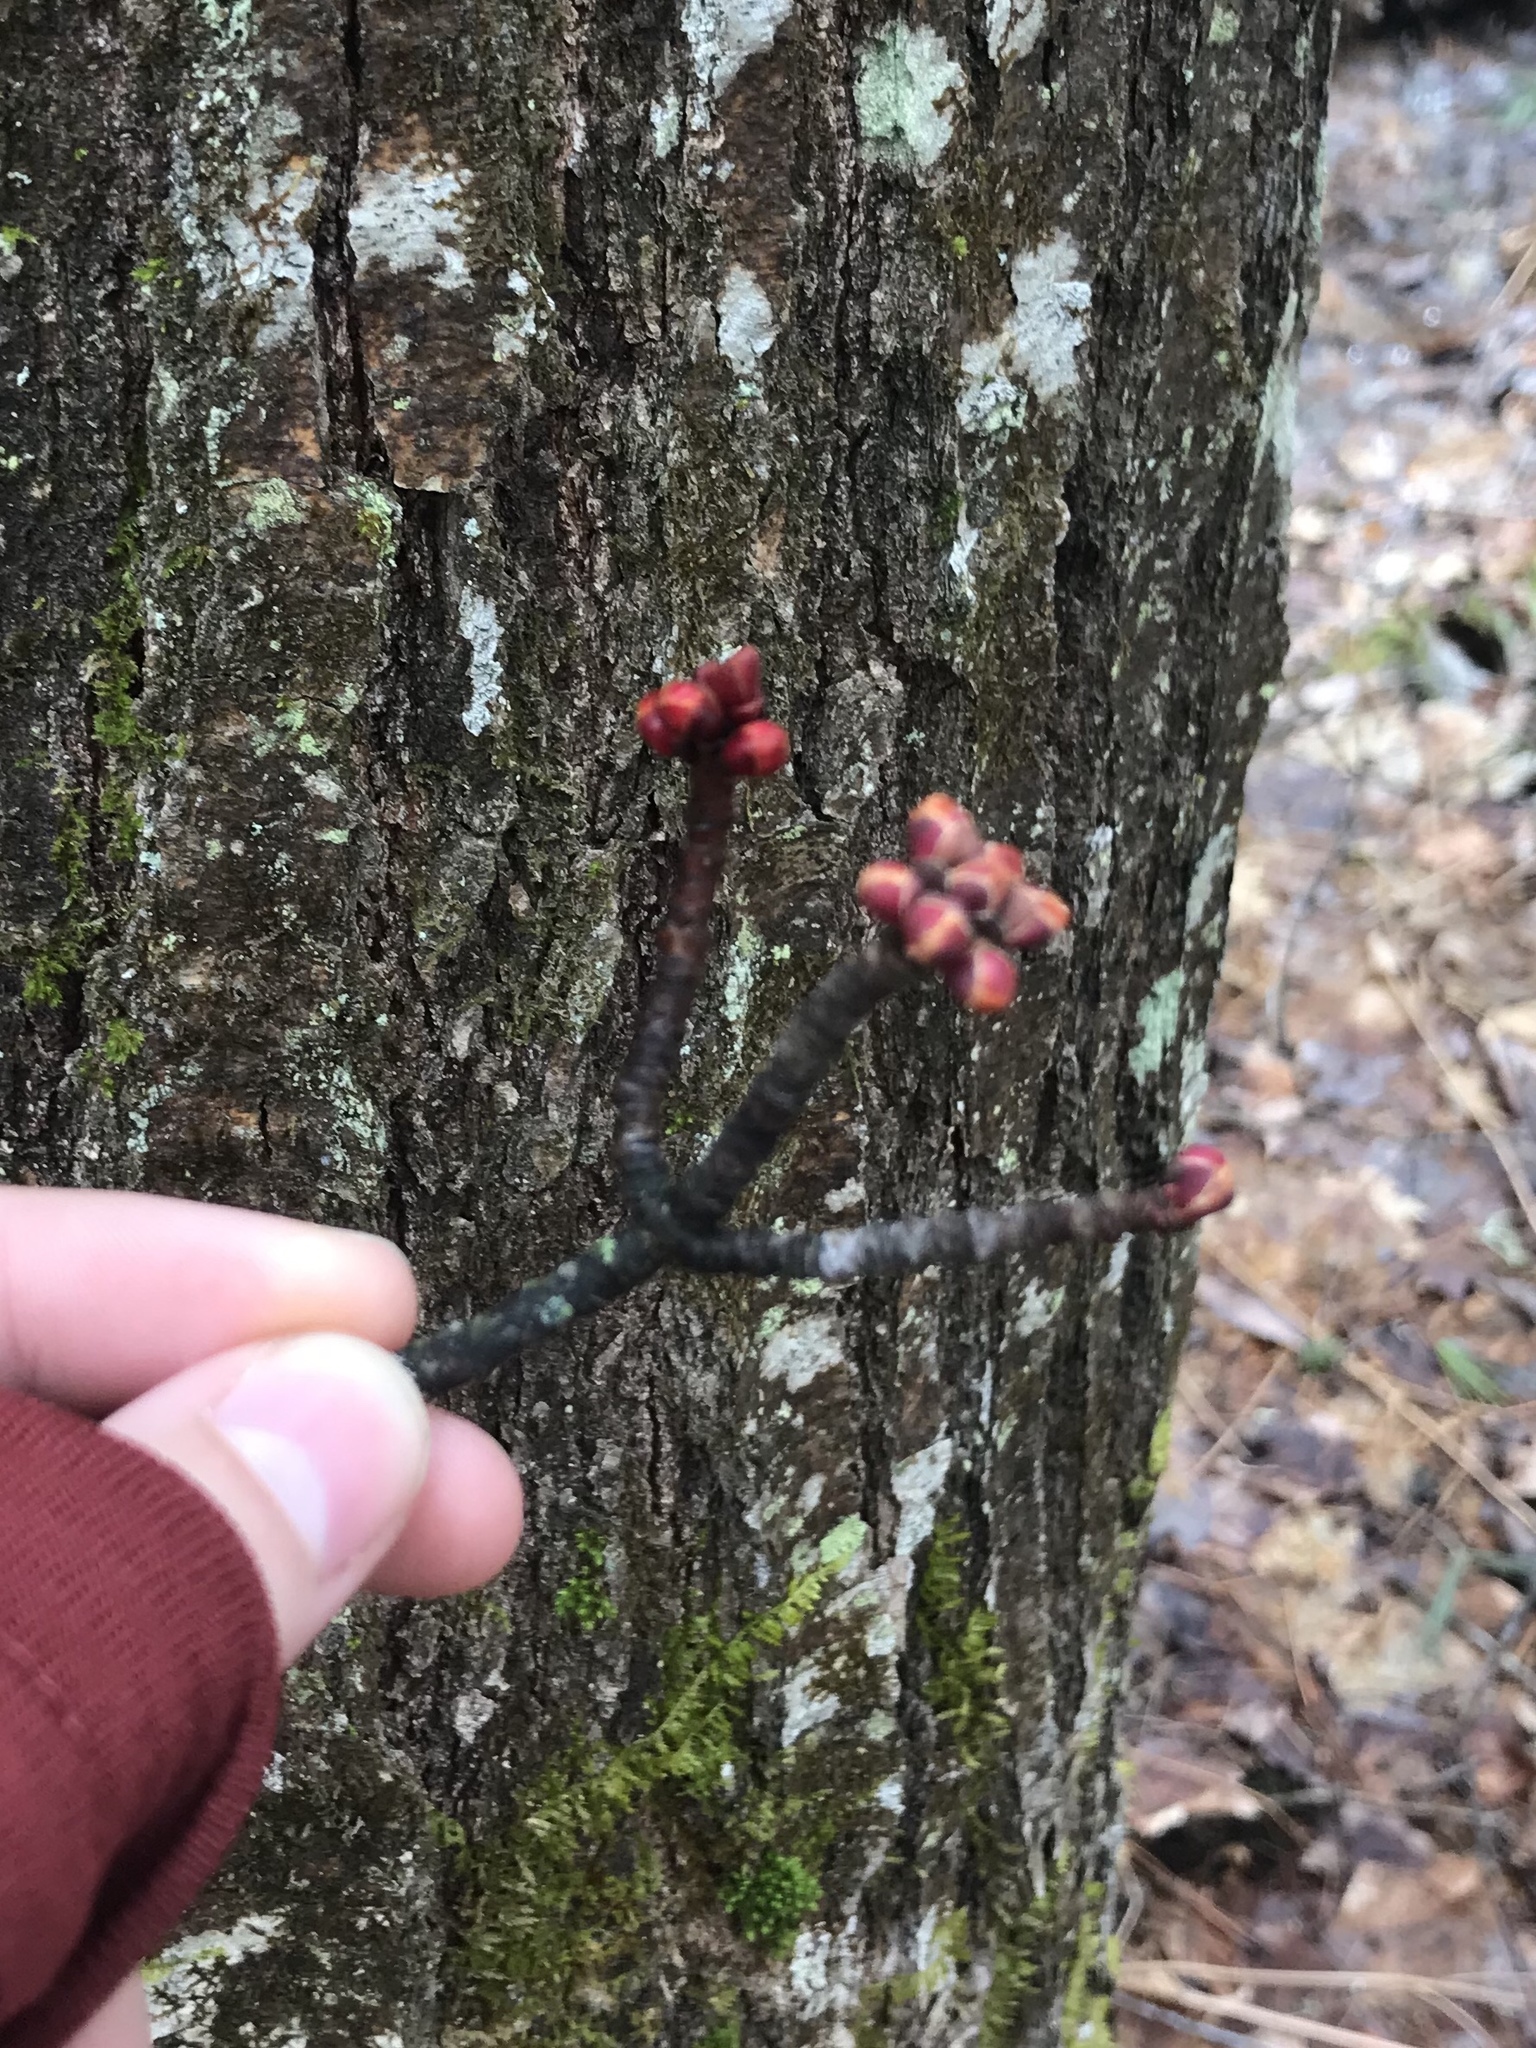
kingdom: Plantae
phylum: Tracheophyta
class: Magnoliopsida
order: Sapindales
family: Sapindaceae
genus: Acer
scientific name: Acer rubrum
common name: Red maple
